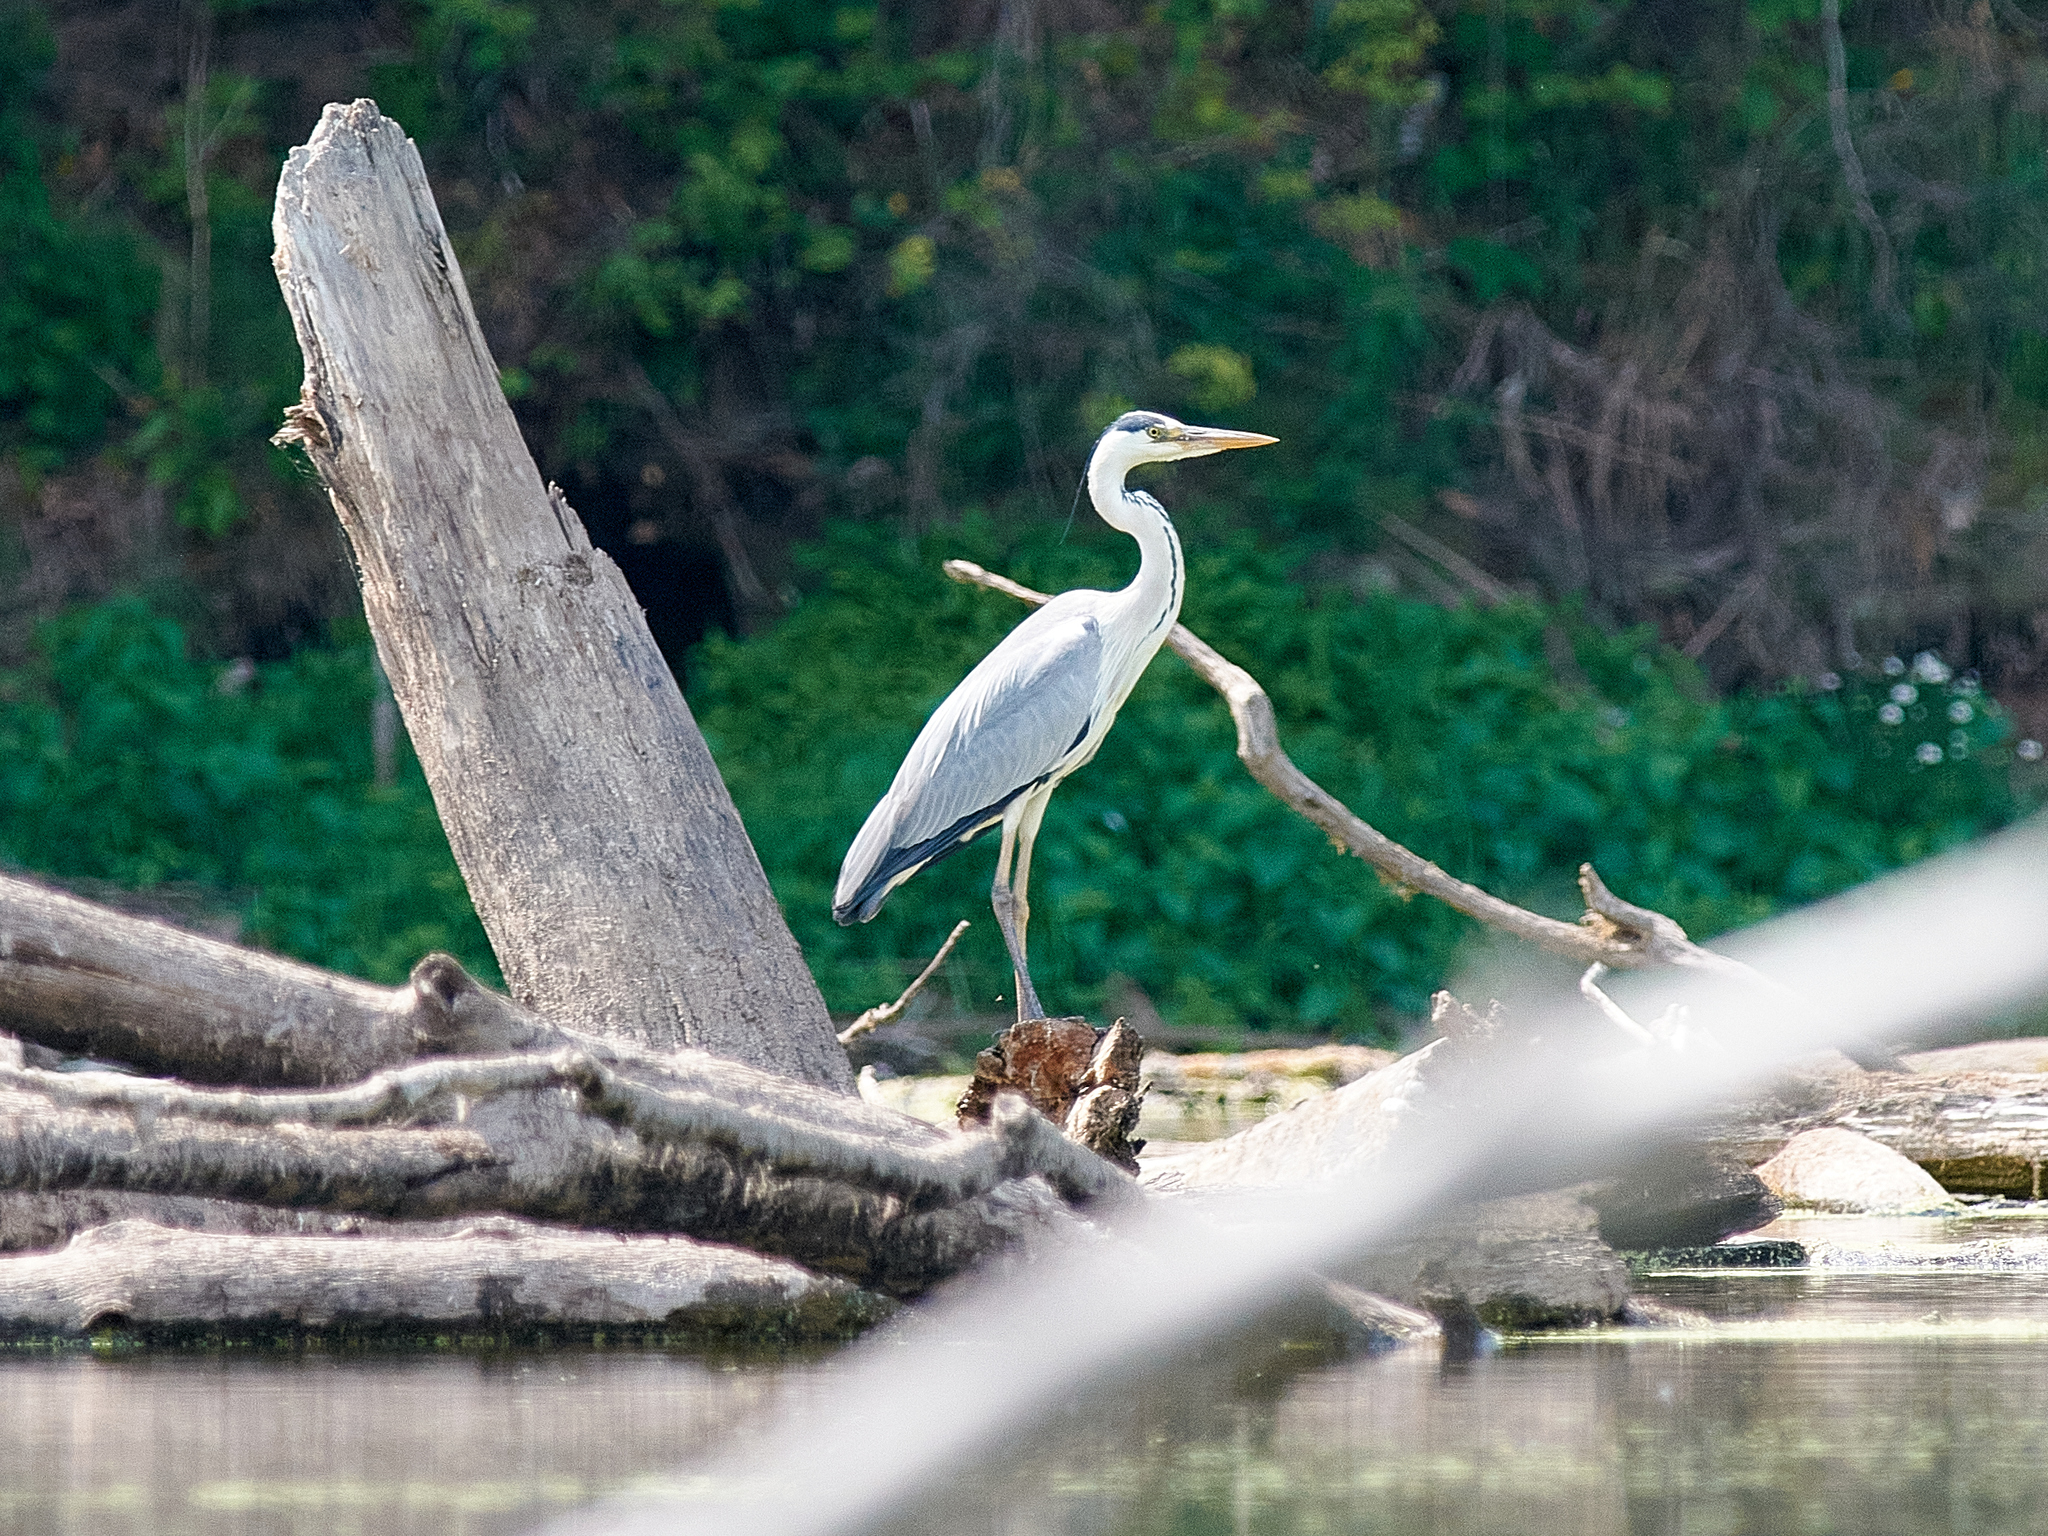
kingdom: Animalia
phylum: Chordata
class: Aves
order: Pelecaniformes
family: Ardeidae
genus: Ardea
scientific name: Ardea cinerea
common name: Grey heron
